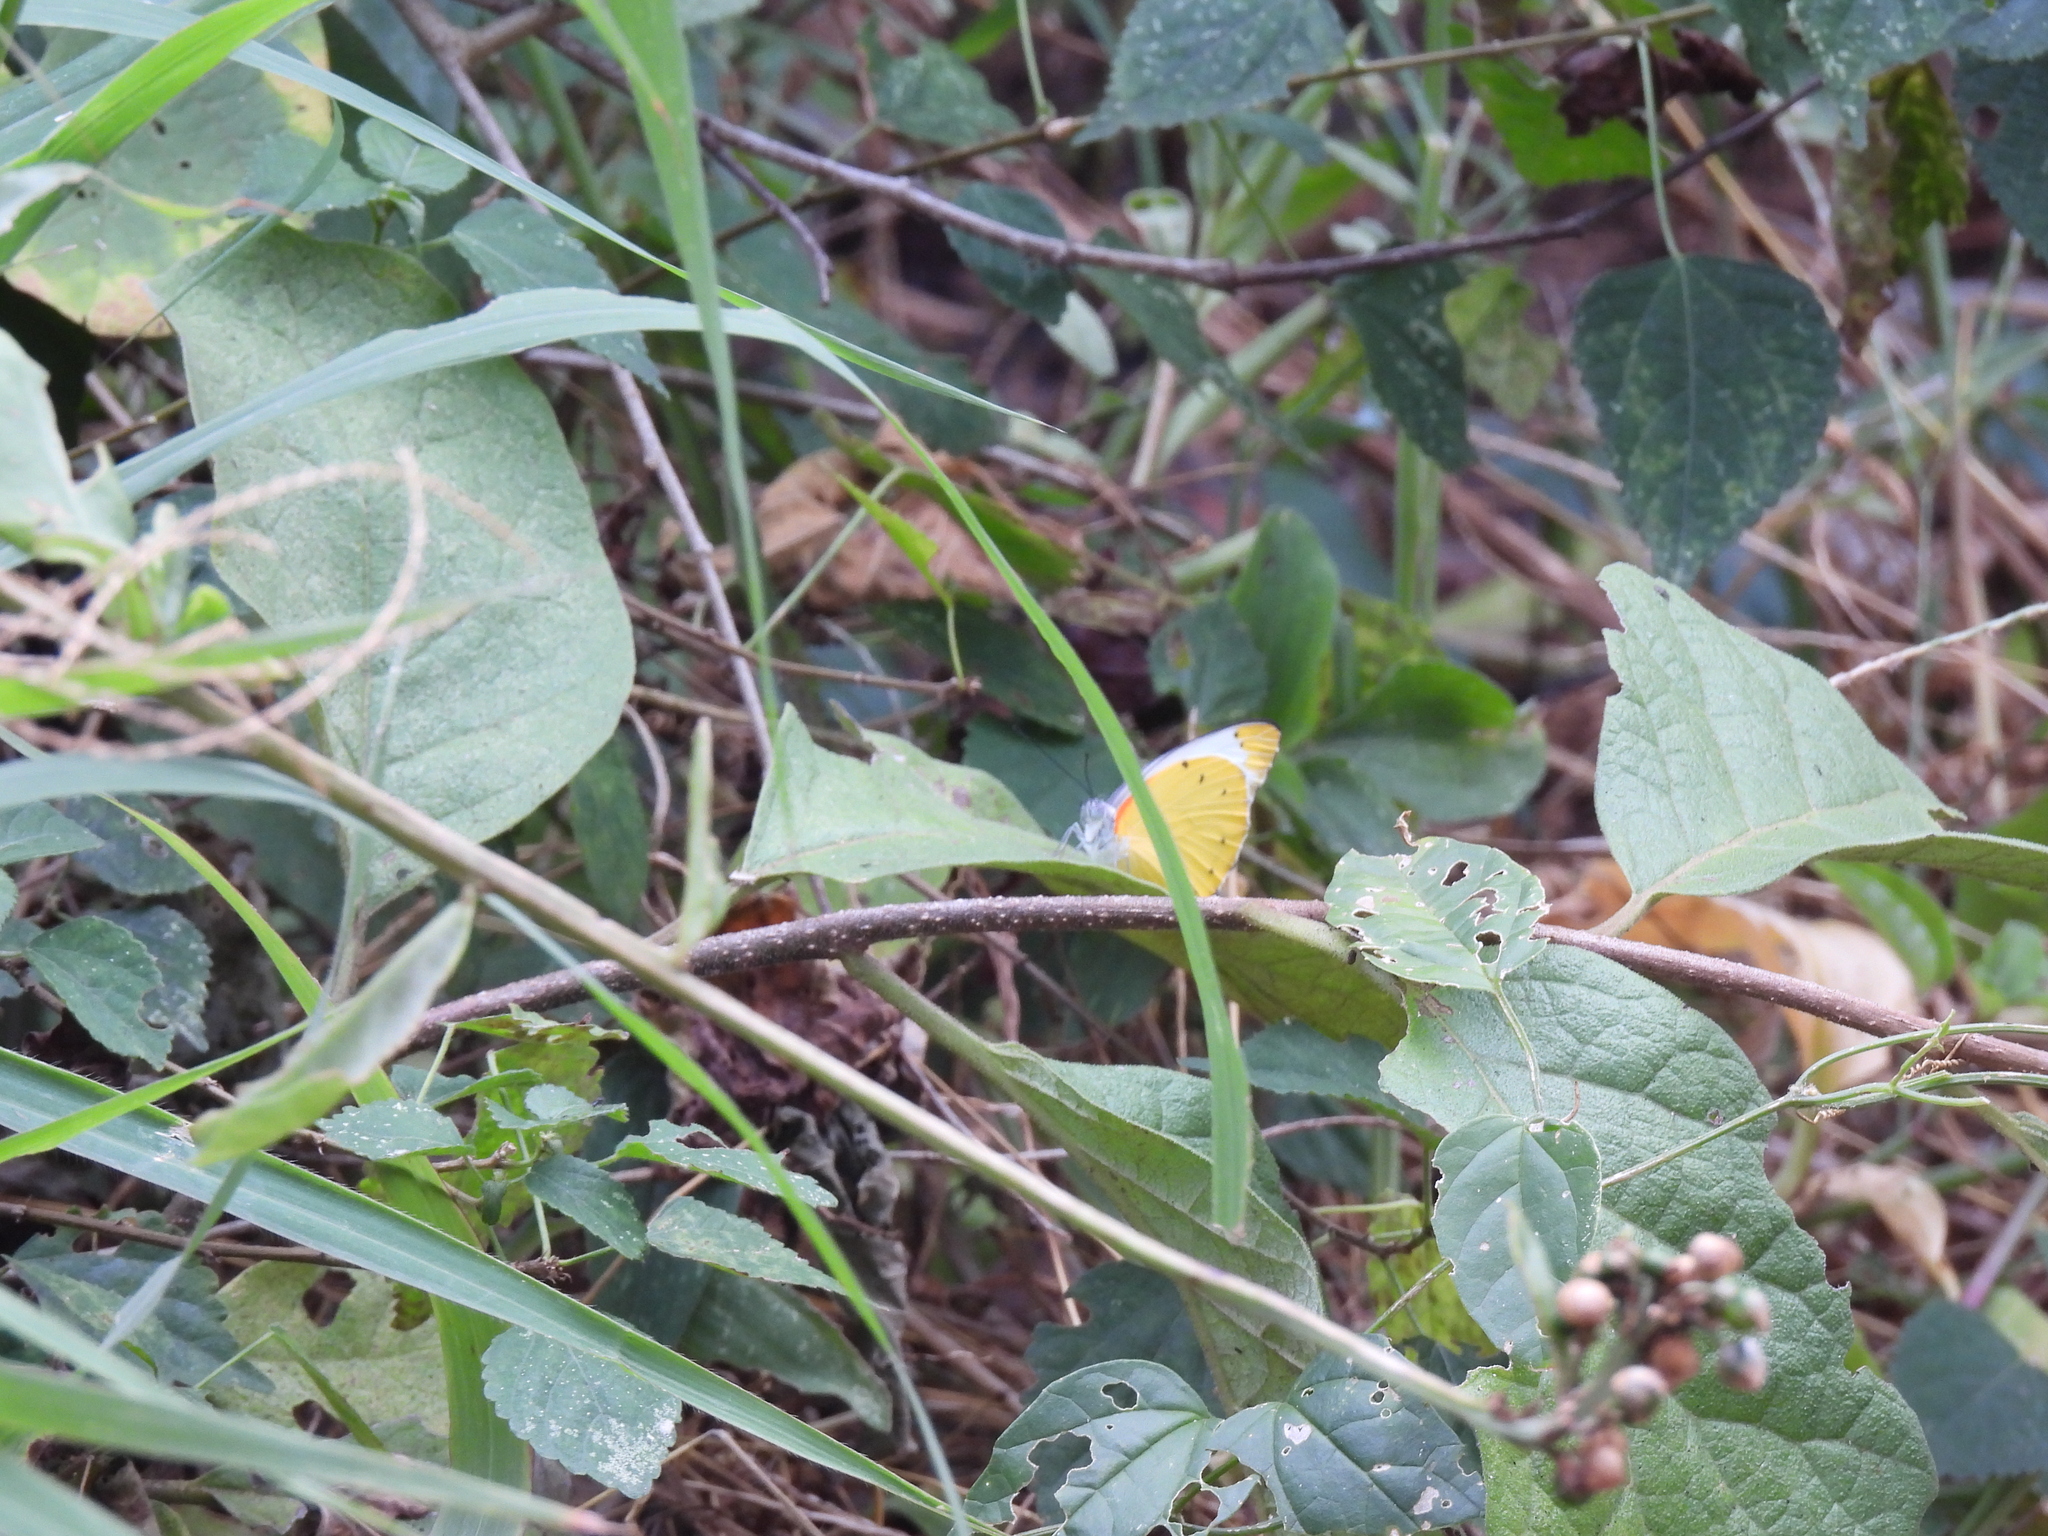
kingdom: Animalia
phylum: Arthropoda
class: Insecta
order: Lepidoptera
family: Pieridae
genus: Belenois
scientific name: Belenois thysa
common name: False dotted border
